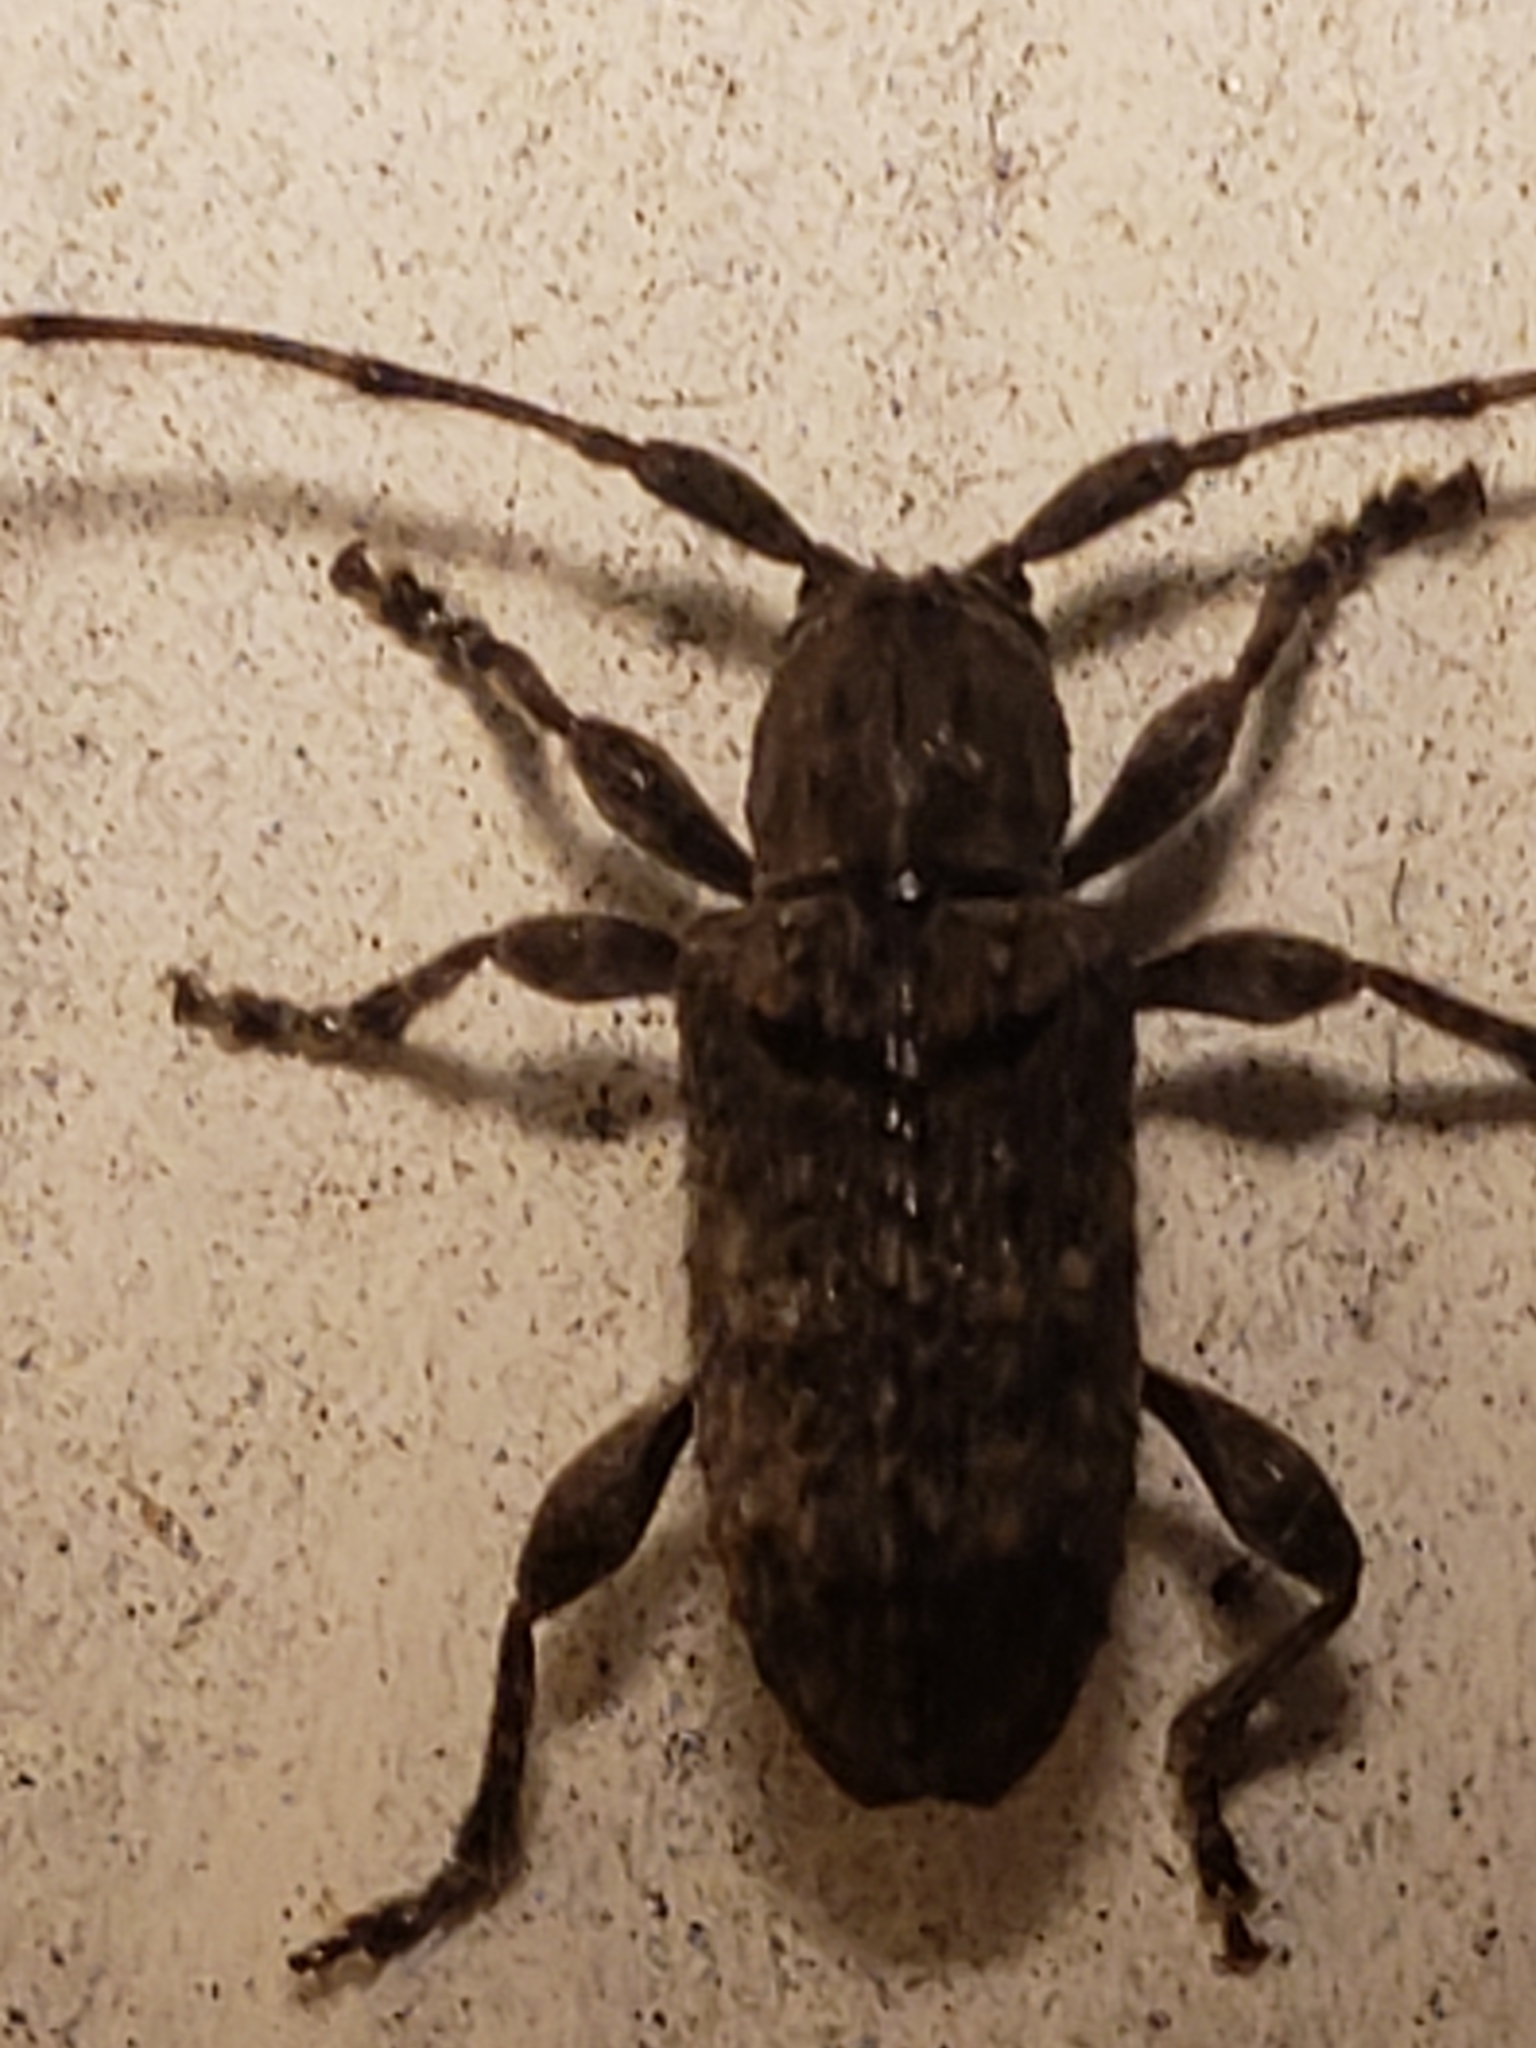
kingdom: Animalia
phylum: Arthropoda
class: Insecta
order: Coleoptera
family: Cerambycidae
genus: Ecyrus
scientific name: Ecyrus dasycerus
